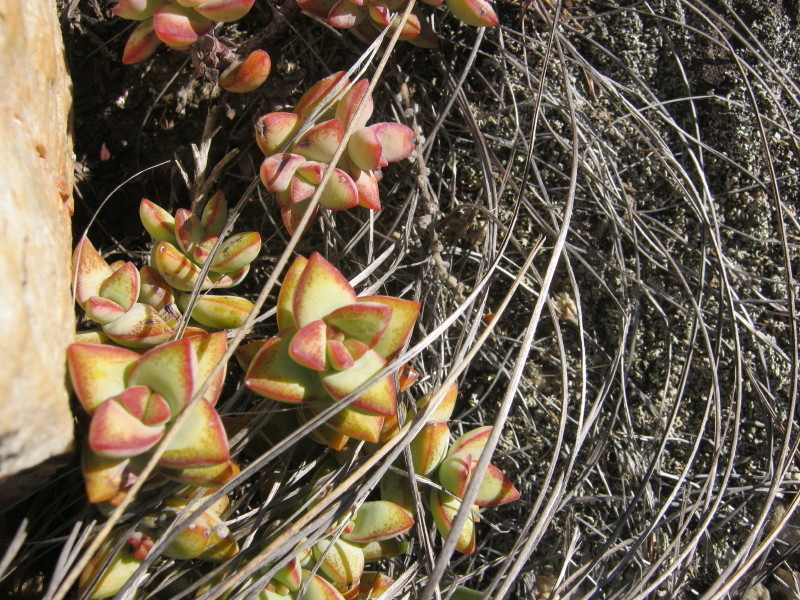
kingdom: Plantae
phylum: Tracheophyta
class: Magnoliopsida
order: Saxifragales
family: Crassulaceae
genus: Crassula
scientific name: Crassula rupestris
